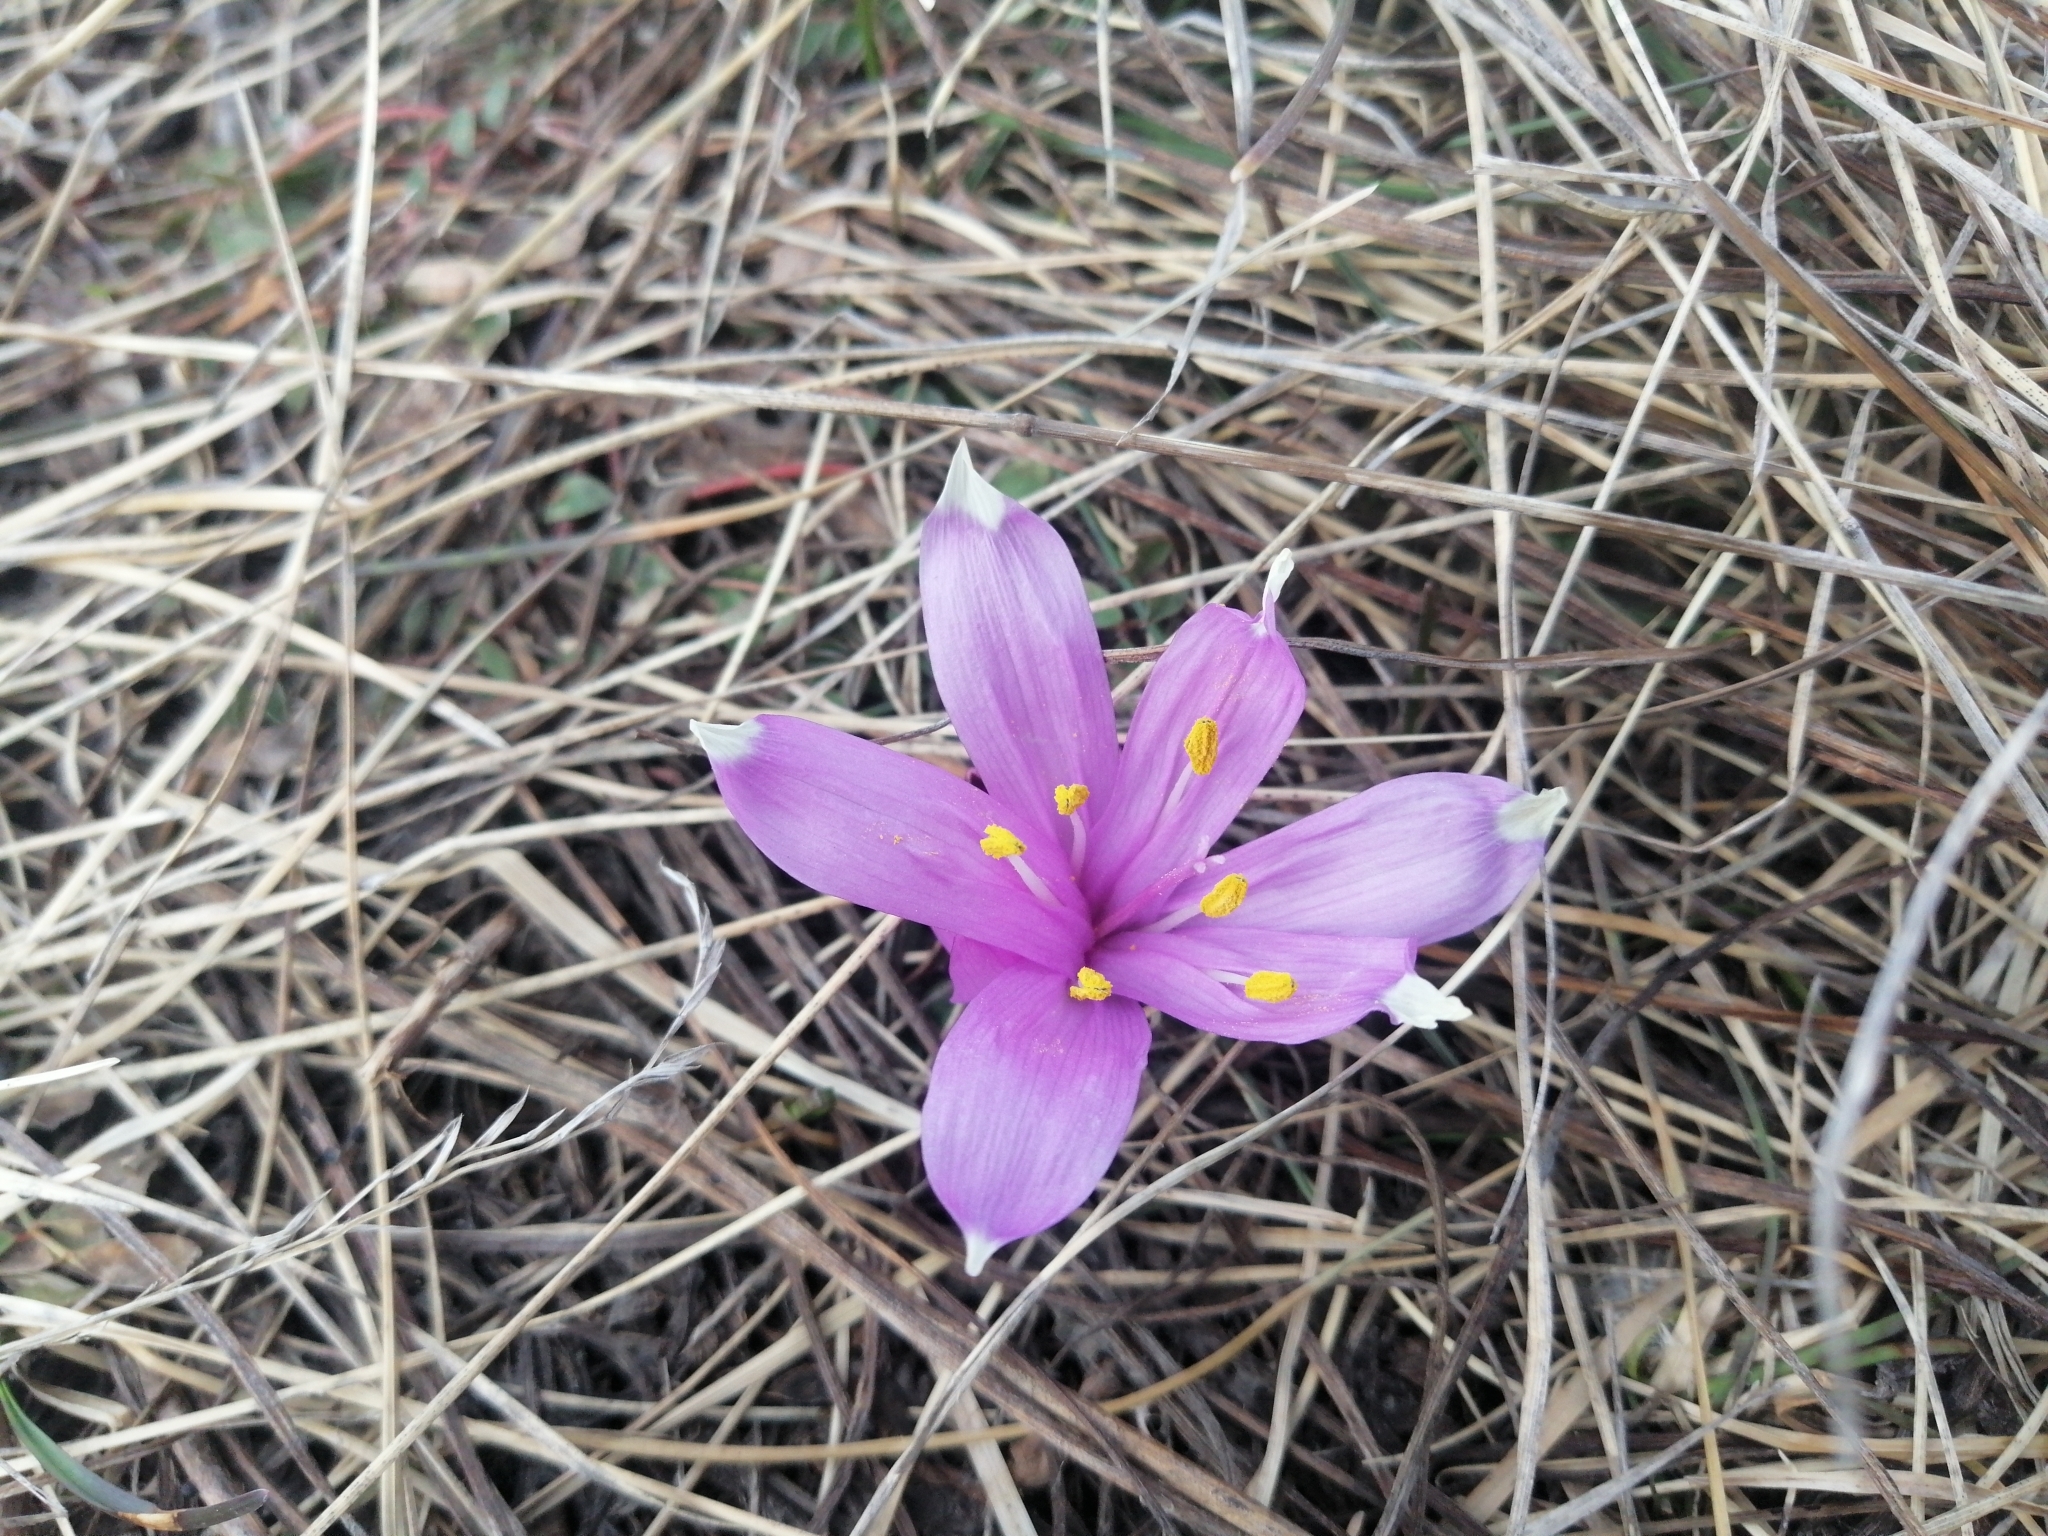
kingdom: Plantae
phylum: Tracheophyta
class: Liliopsida
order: Liliales
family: Colchicaceae
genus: Colchicum
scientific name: Colchicum bulbocodium
